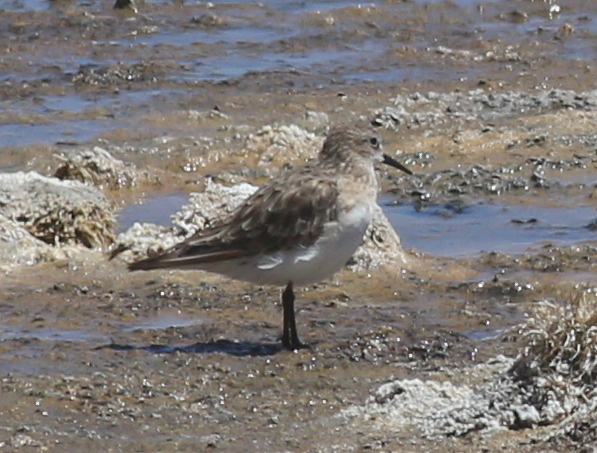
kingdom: Animalia
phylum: Chordata
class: Aves
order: Charadriiformes
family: Scolopacidae
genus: Calidris
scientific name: Calidris bairdii
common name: Baird's sandpiper
